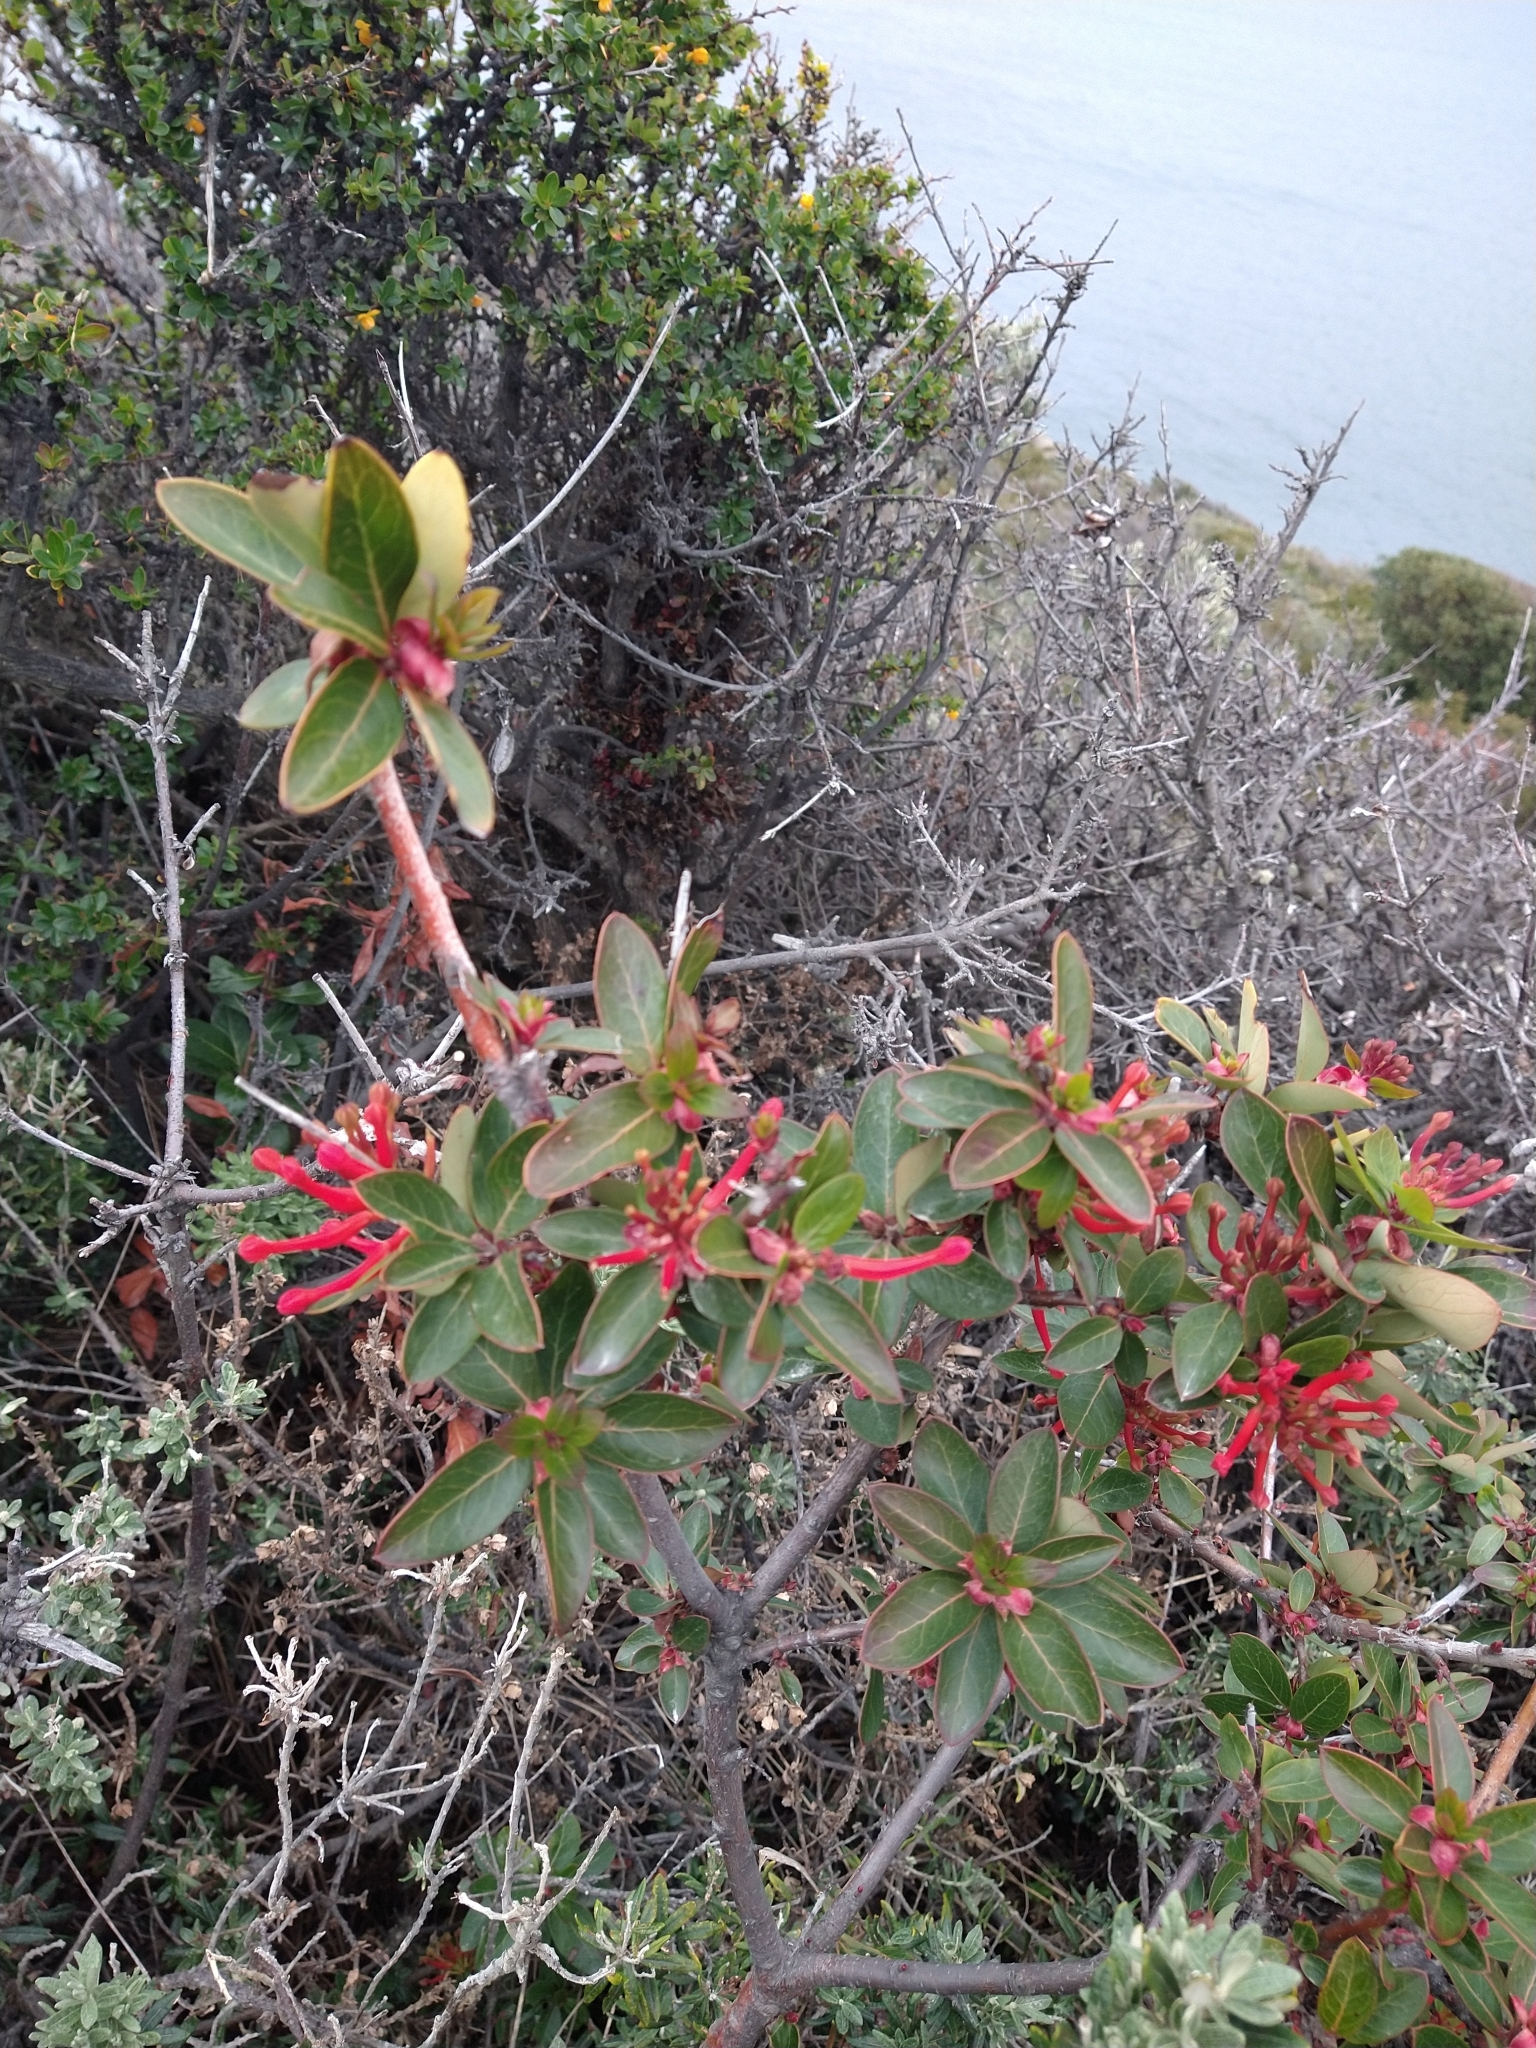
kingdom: Plantae
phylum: Tracheophyta
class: Magnoliopsida
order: Proteales
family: Proteaceae
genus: Embothrium
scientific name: Embothrium coccineum
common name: Chilean firebush
